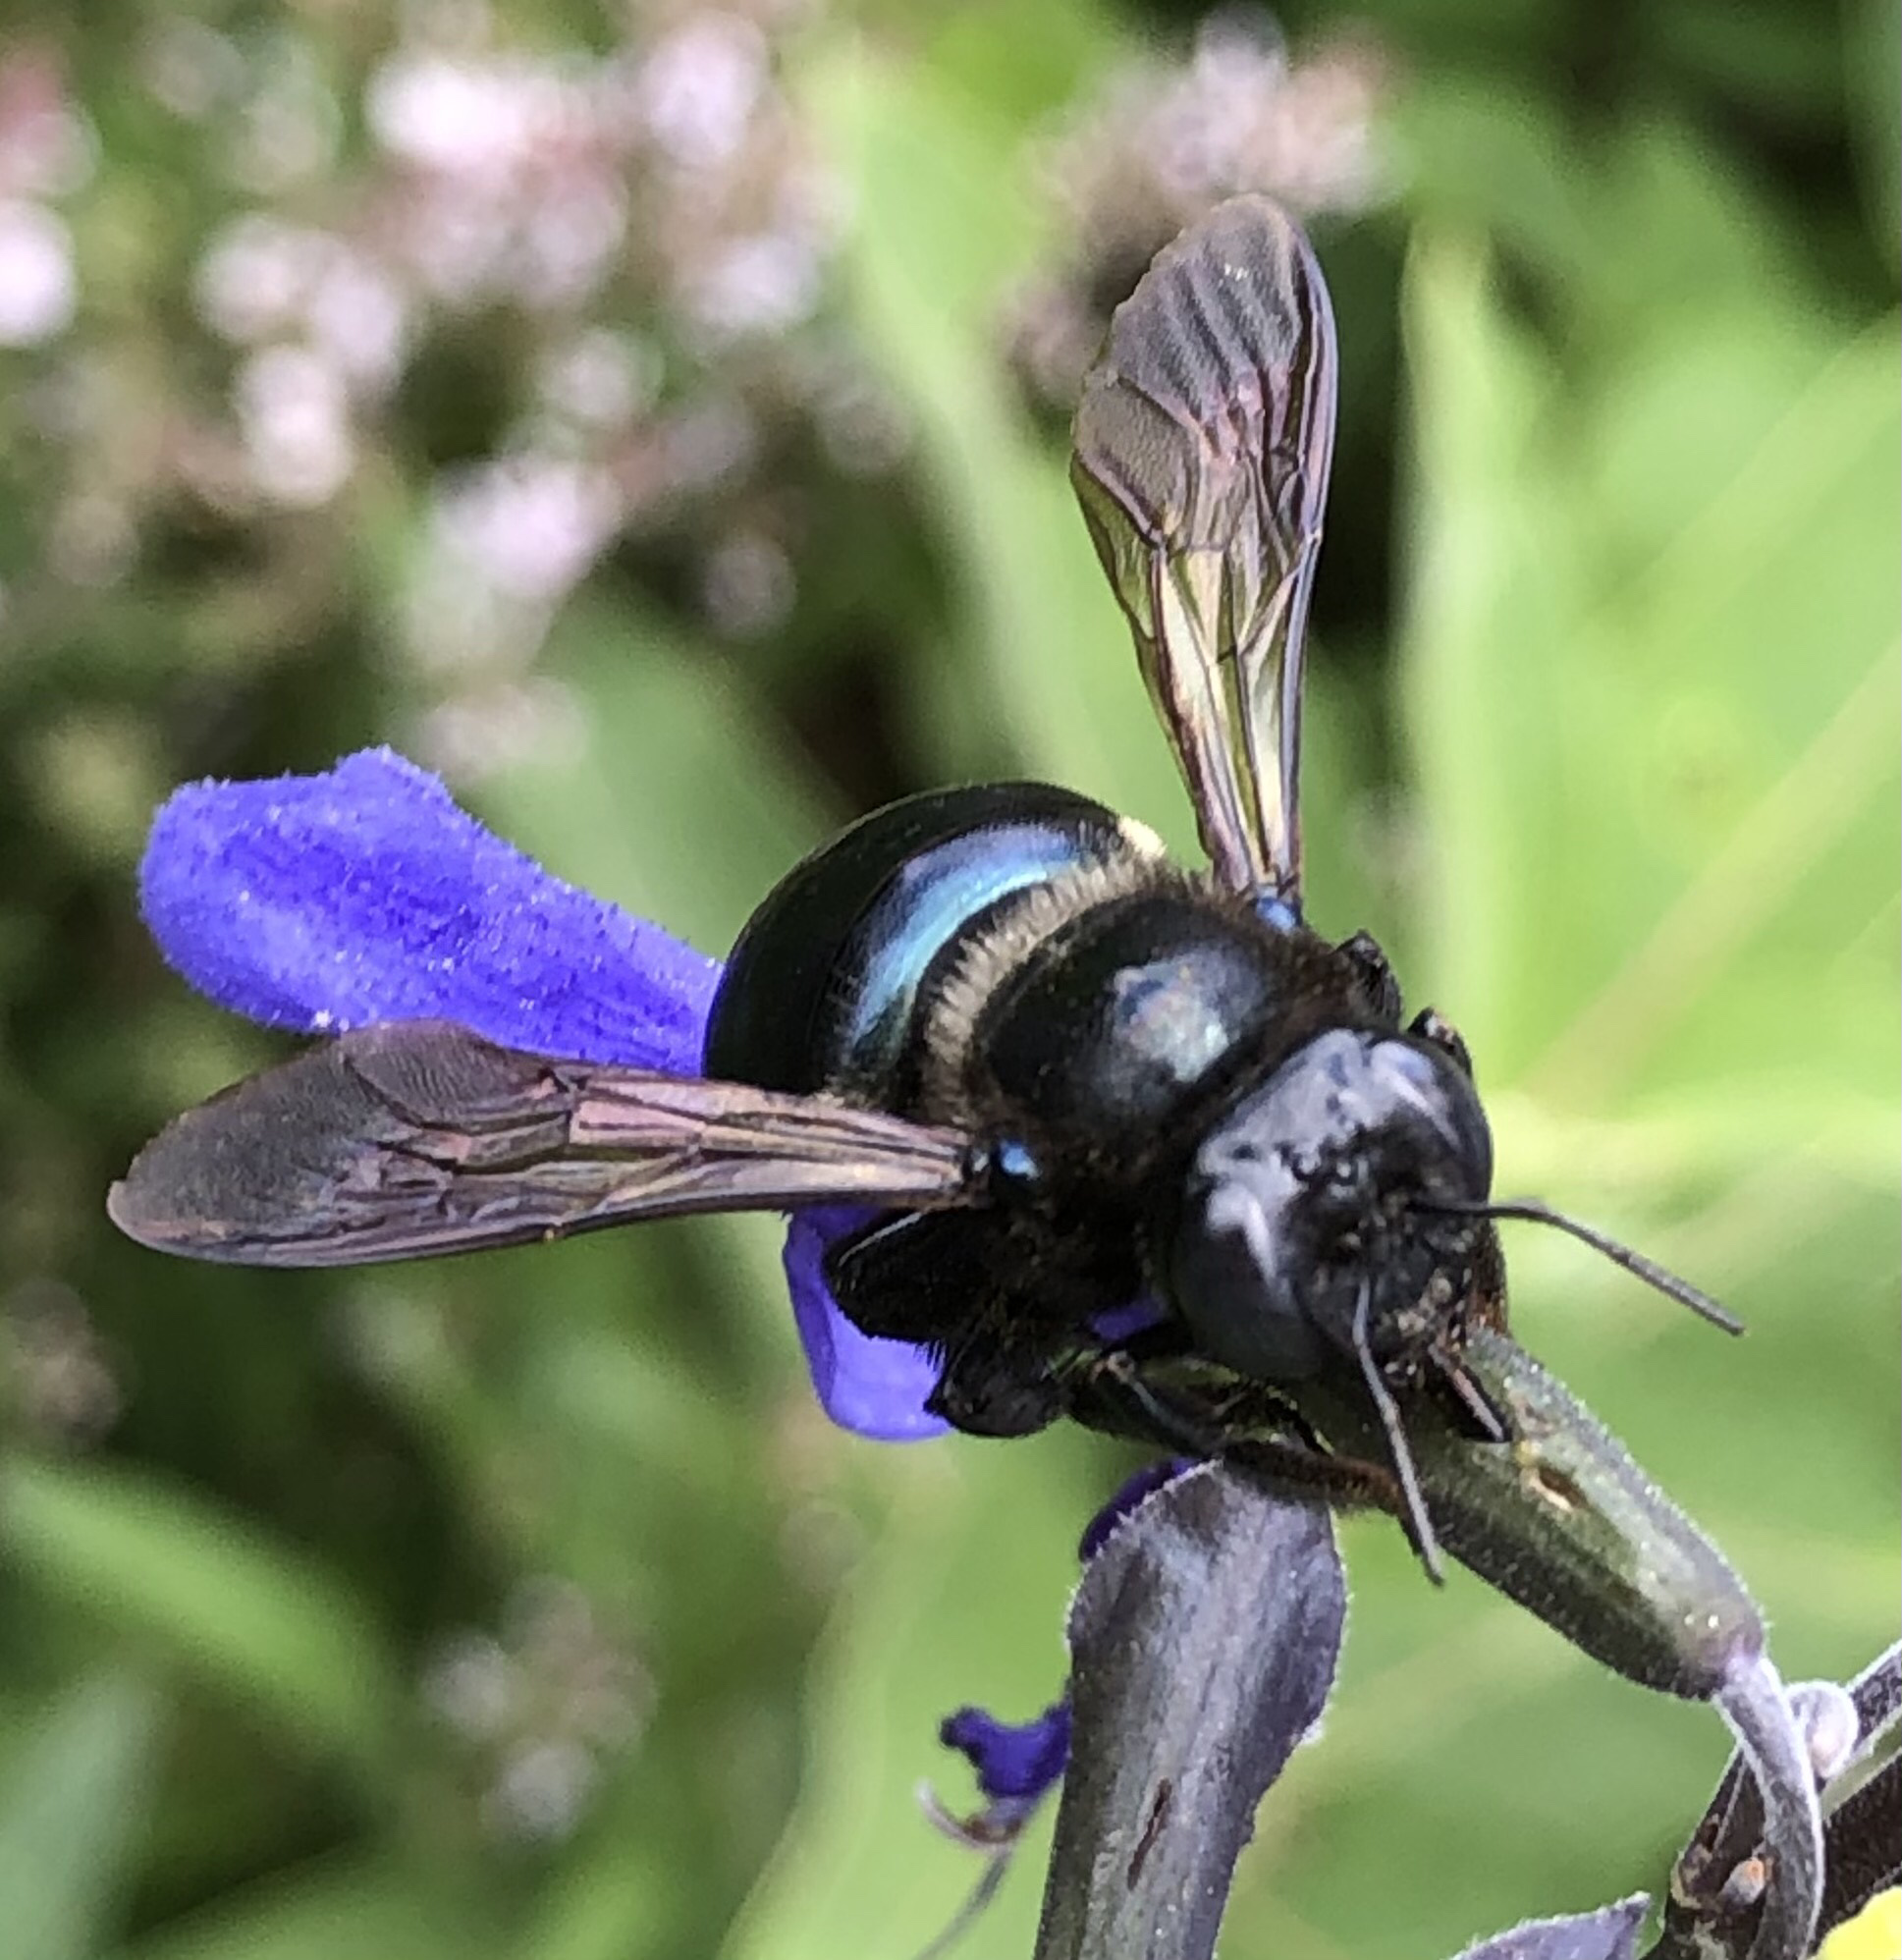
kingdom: Animalia
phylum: Arthropoda
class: Insecta
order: Hymenoptera
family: Apidae
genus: Xylocopa
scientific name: Xylocopa micans
